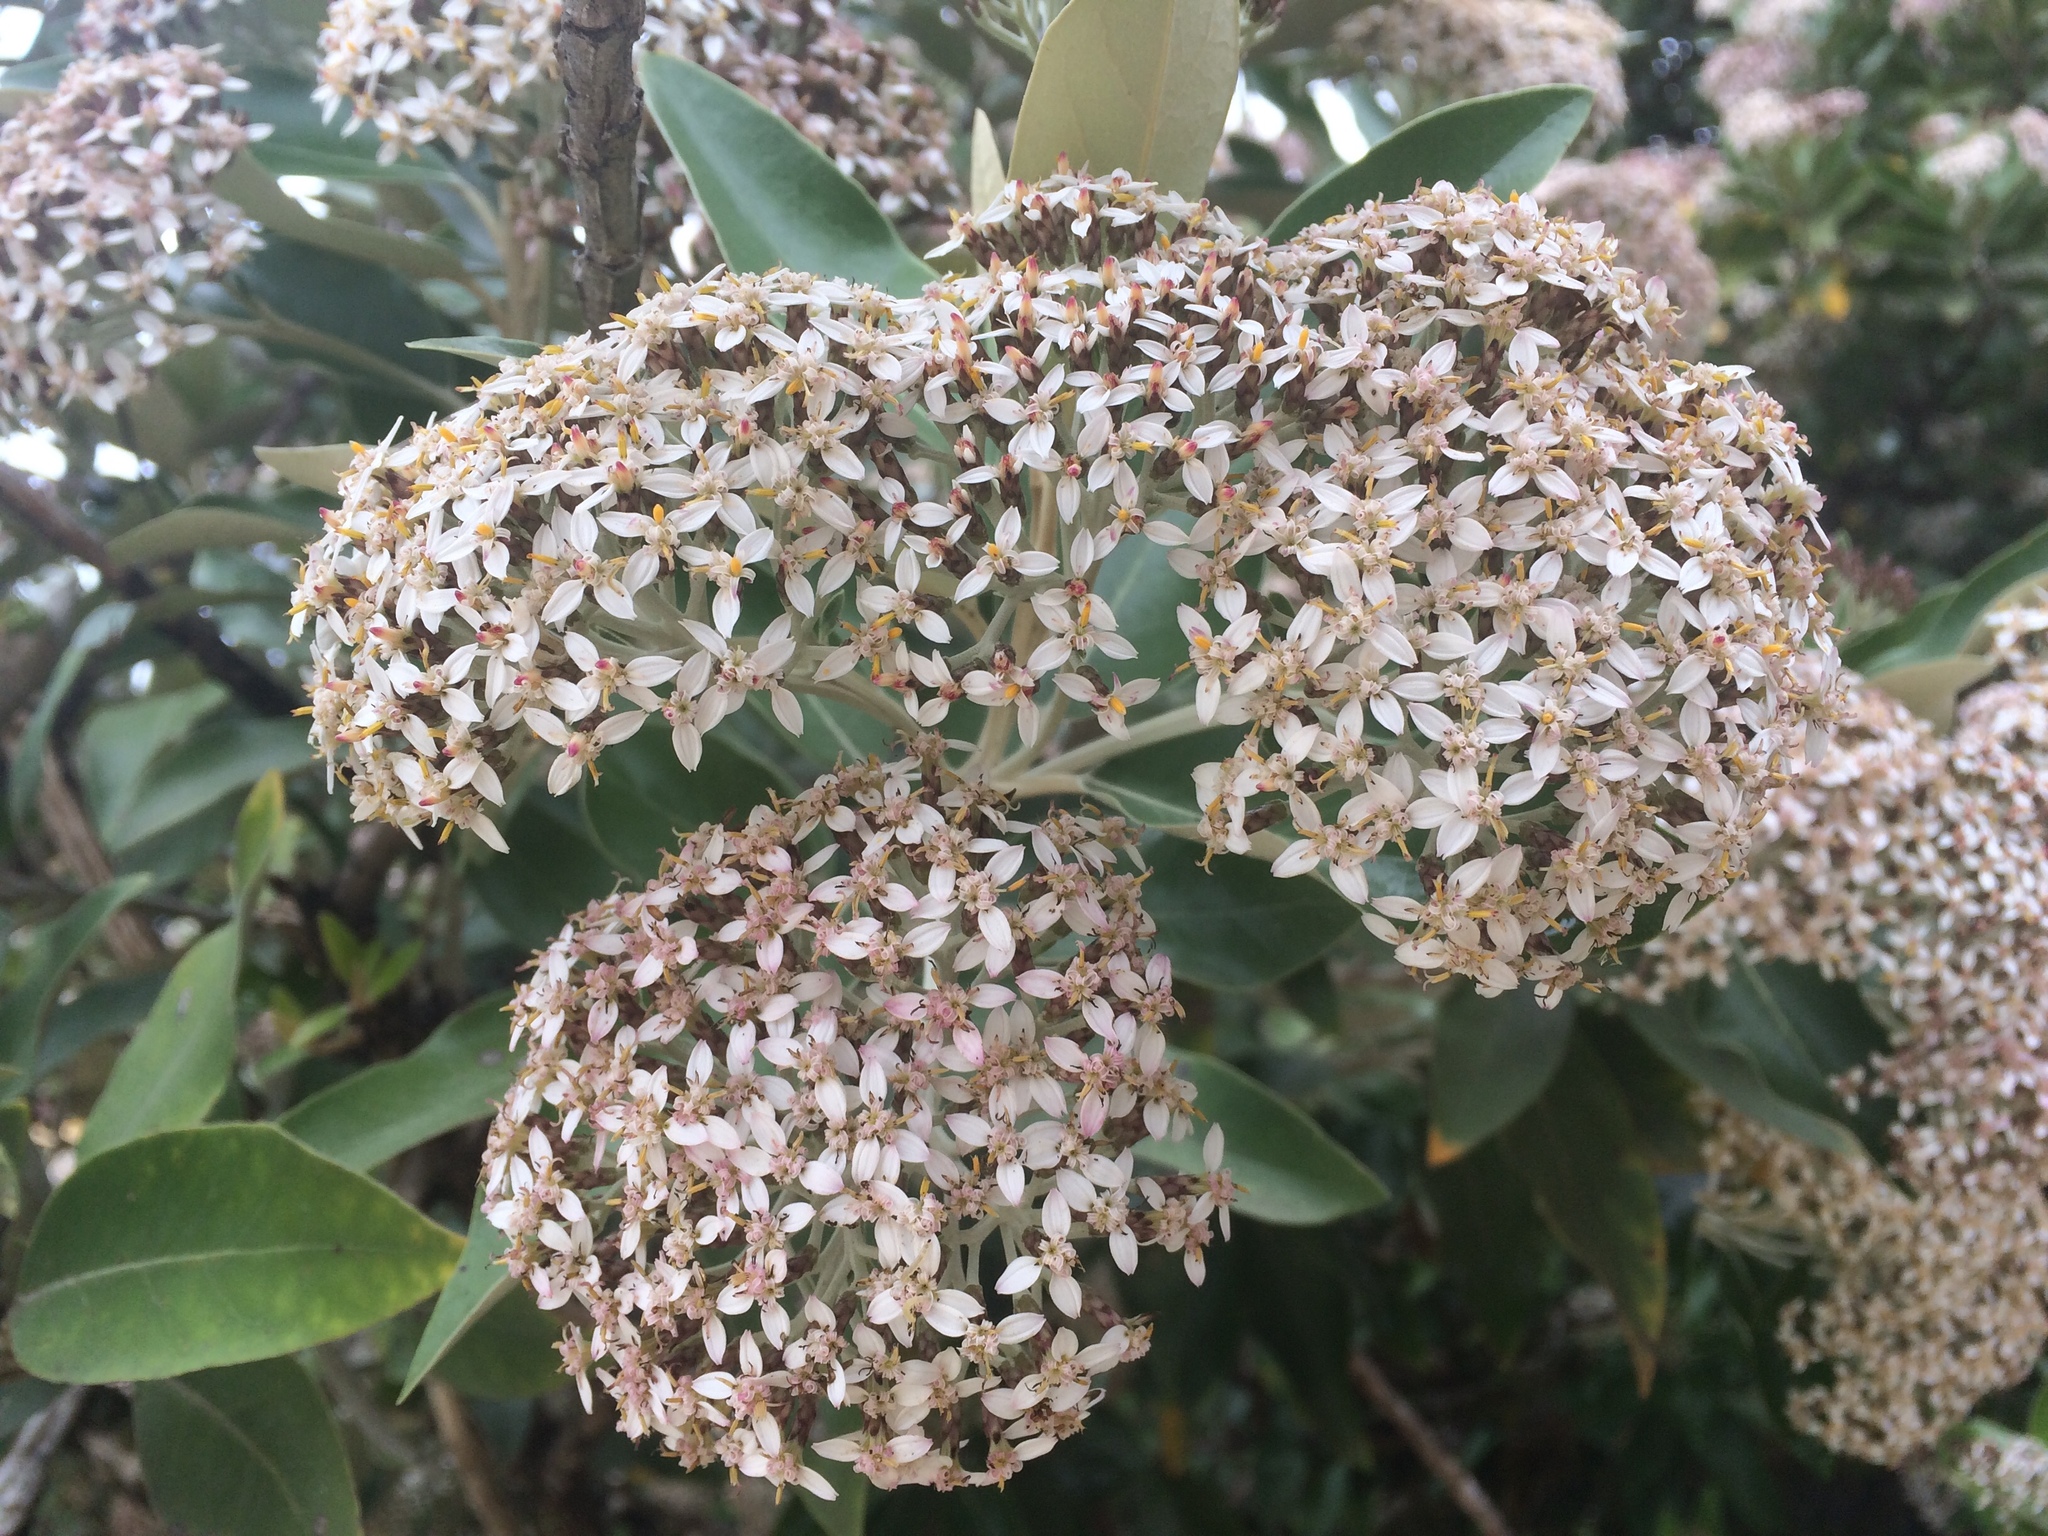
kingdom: Plantae
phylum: Tracheophyta
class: Magnoliopsida
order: Asterales
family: Asteraceae
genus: Olearia
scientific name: Olearia avicenniifolia
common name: Mangrove-leaf daisybush
